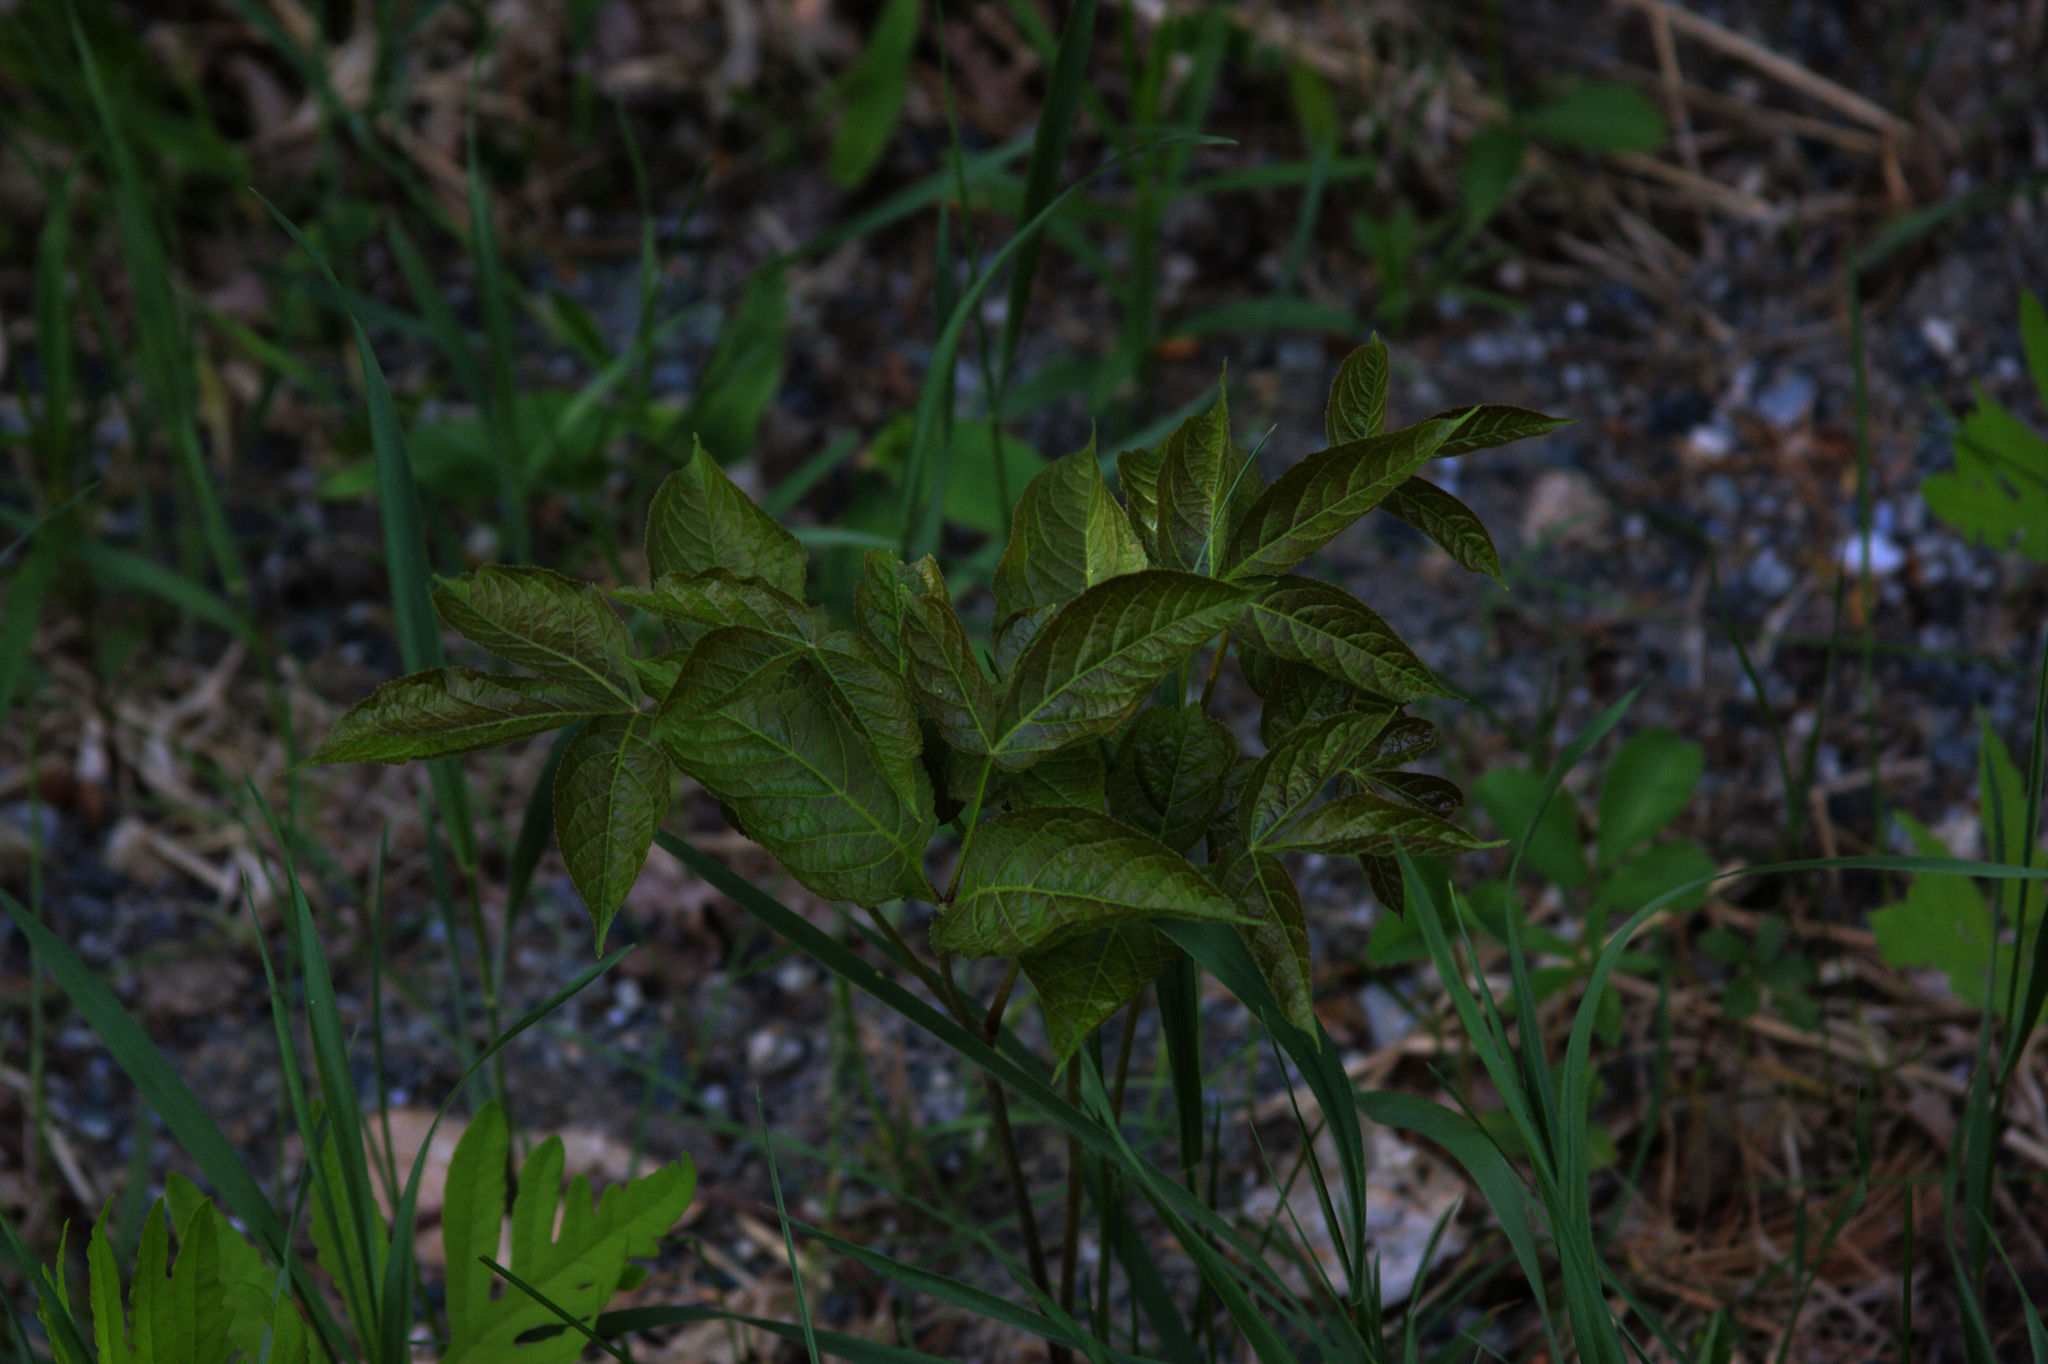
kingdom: Plantae
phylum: Tracheophyta
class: Magnoliopsida
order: Apiales
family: Araliaceae
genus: Aralia
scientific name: Aralia nudicaulis
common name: Wild sarsaparilla
